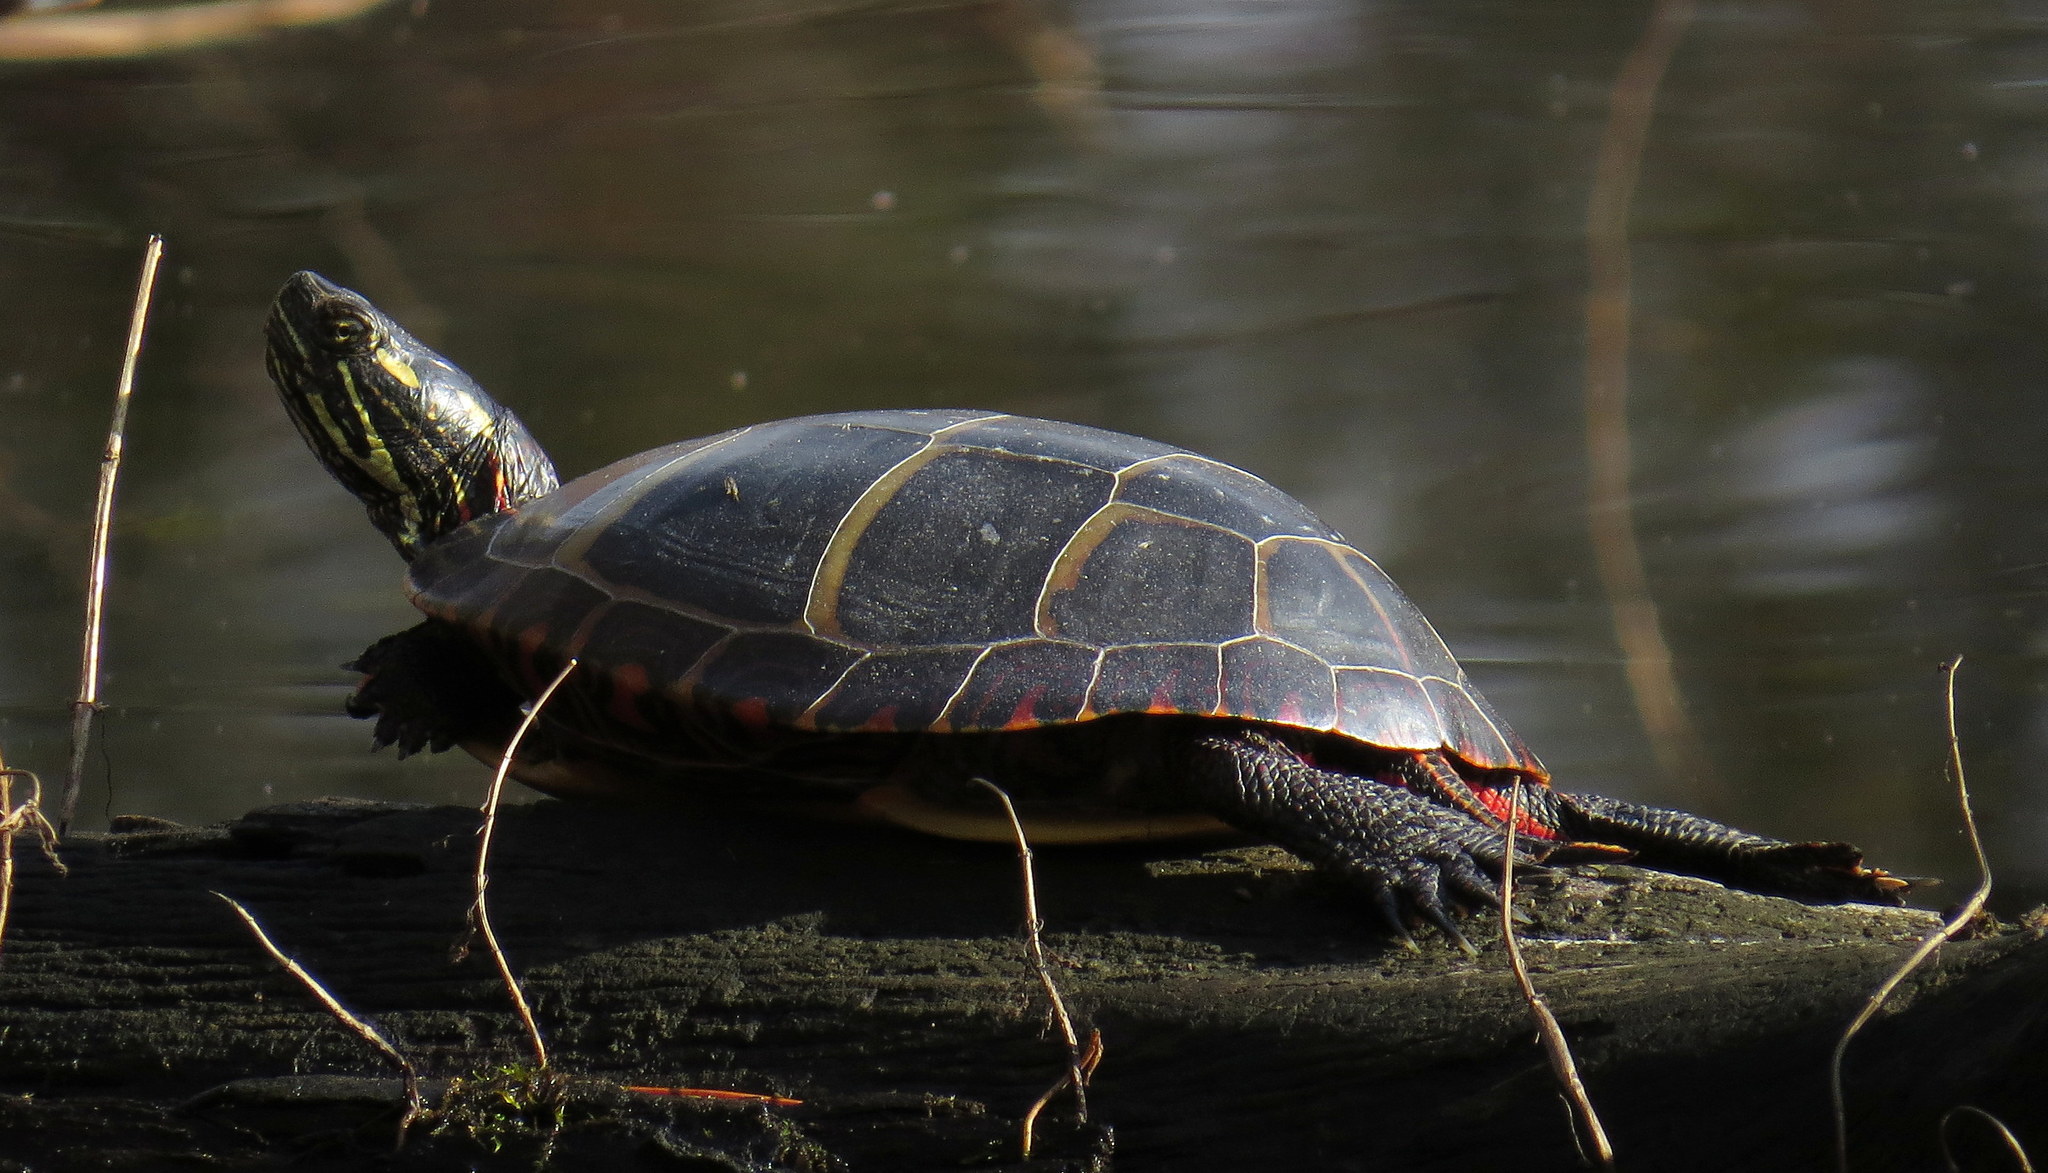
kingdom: Animalia
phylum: Chordata
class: Testudines
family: Emydidae
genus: Chrysemys
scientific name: Chrysemys picta
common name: Painted turtle
